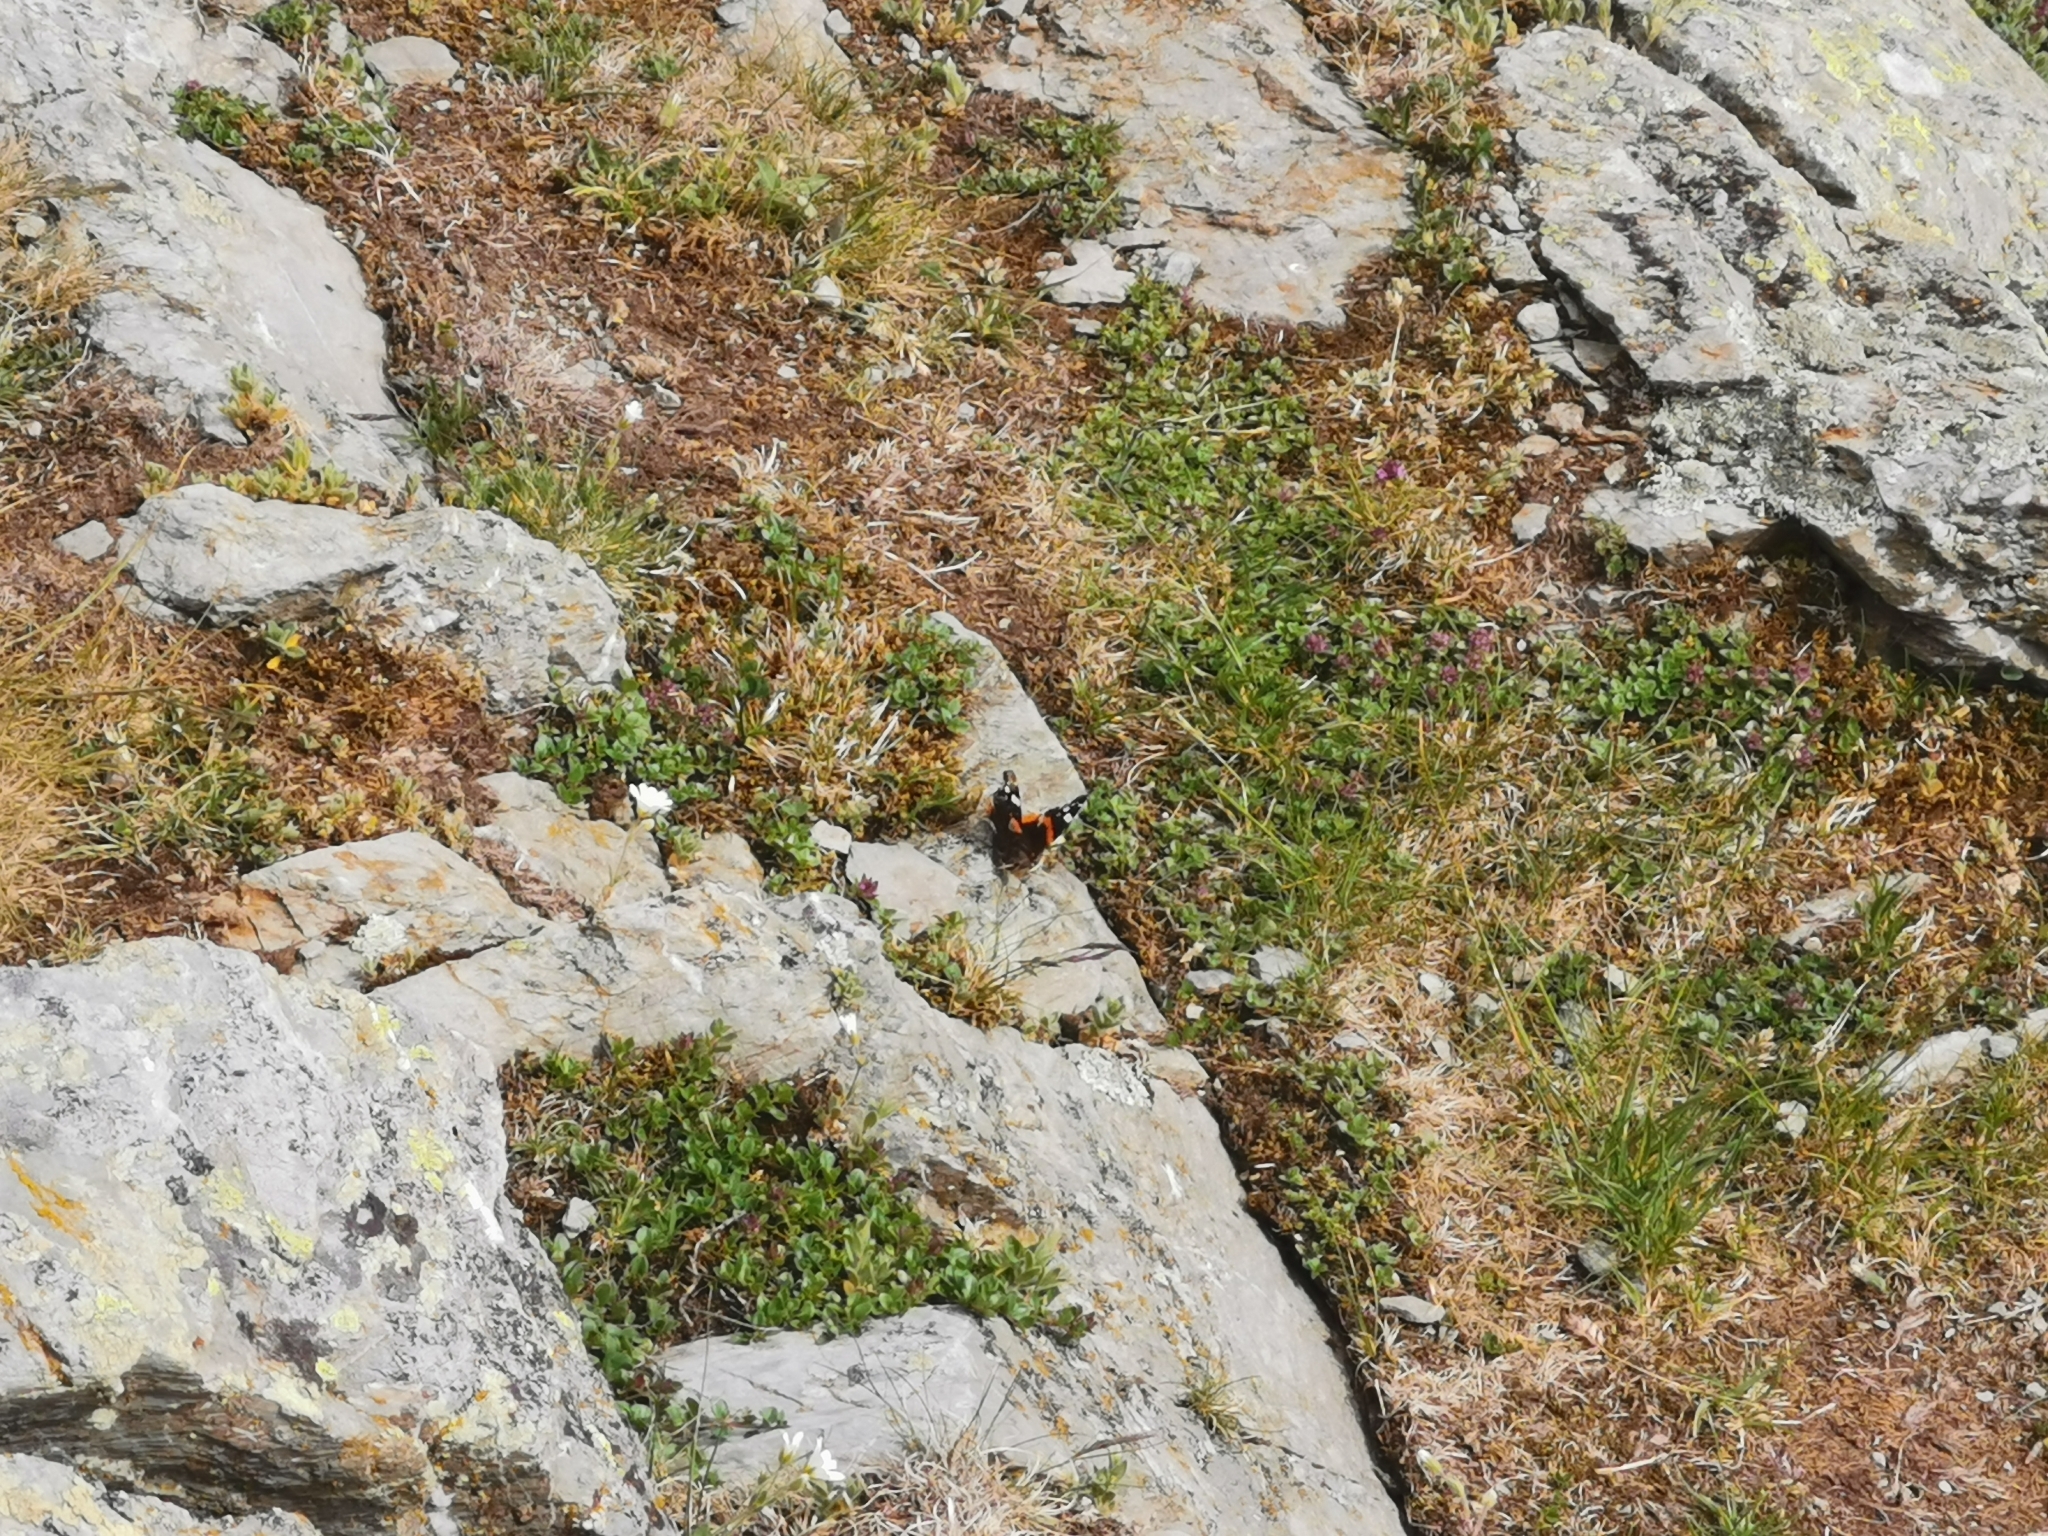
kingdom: Animalia
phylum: Arthropoda
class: Insecta
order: Lepidoptera
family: Nymphalidae
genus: Vanessa
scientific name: Vanessa atalanta
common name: Red admiral
